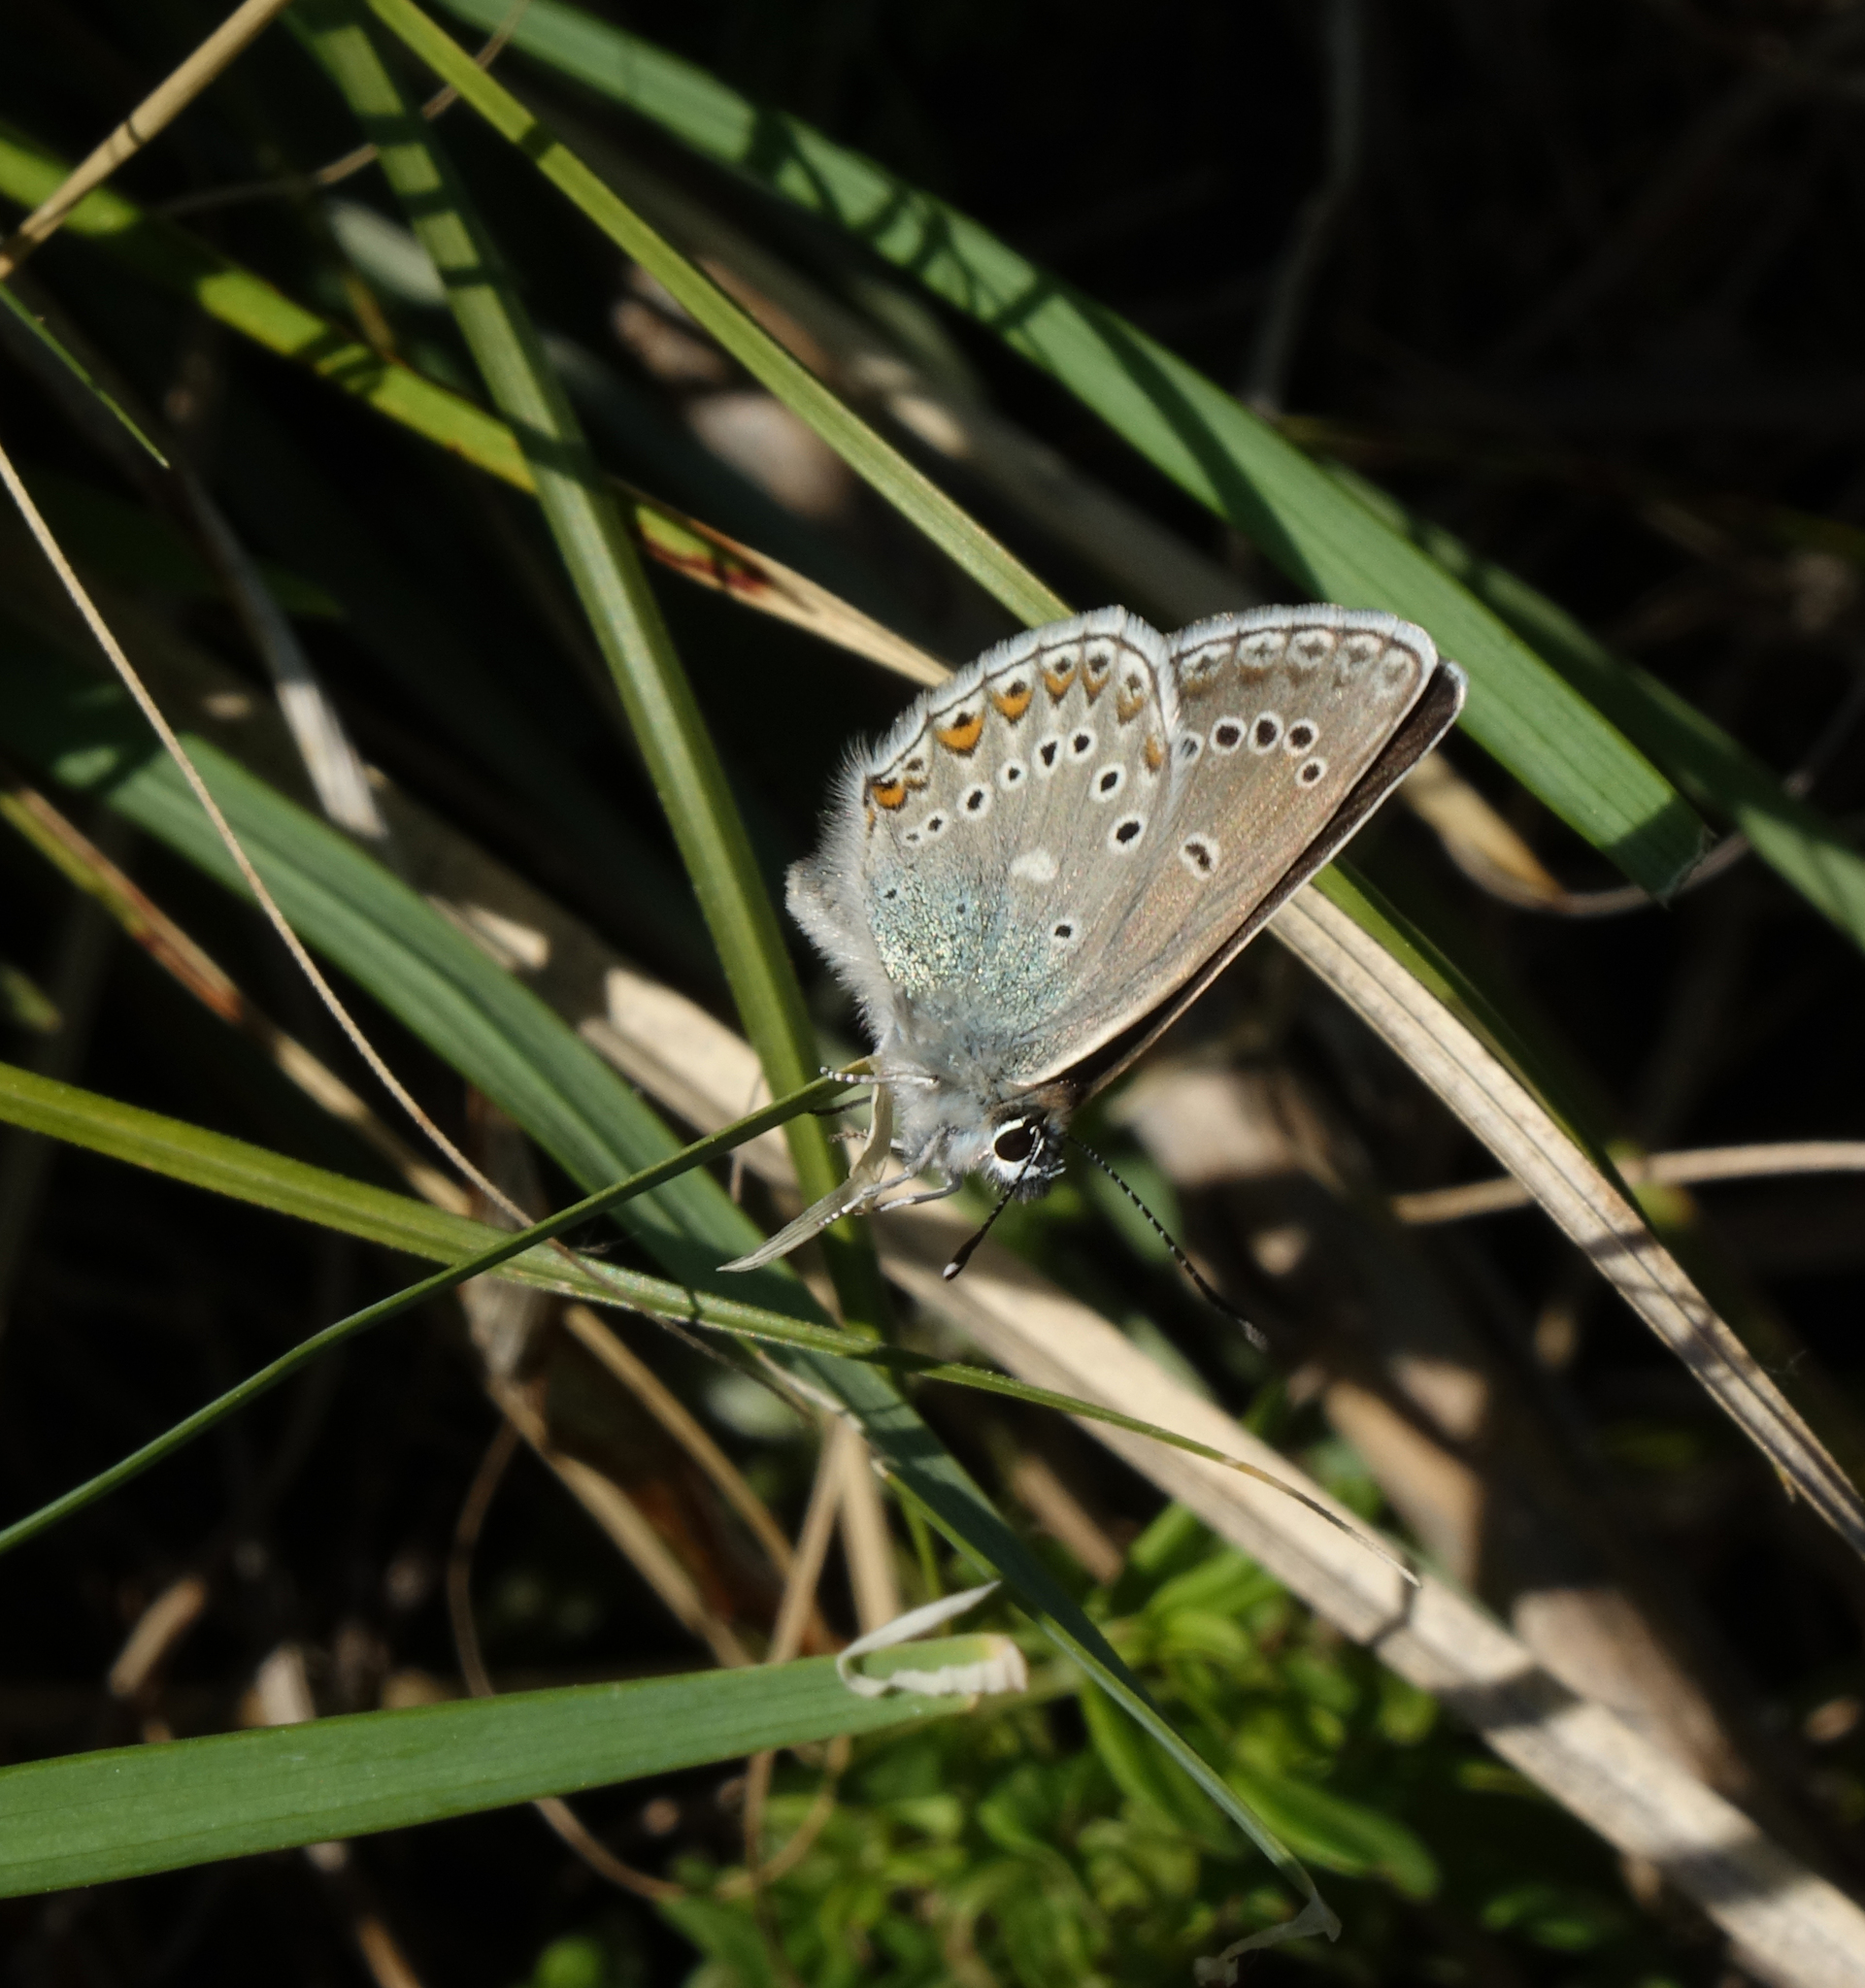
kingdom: Animalia
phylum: Arthropoda
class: Insecta
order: Lepidoptera
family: Lycaenidae
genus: Eumedonia
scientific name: Eumedonia eumedon
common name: Geranium argus
